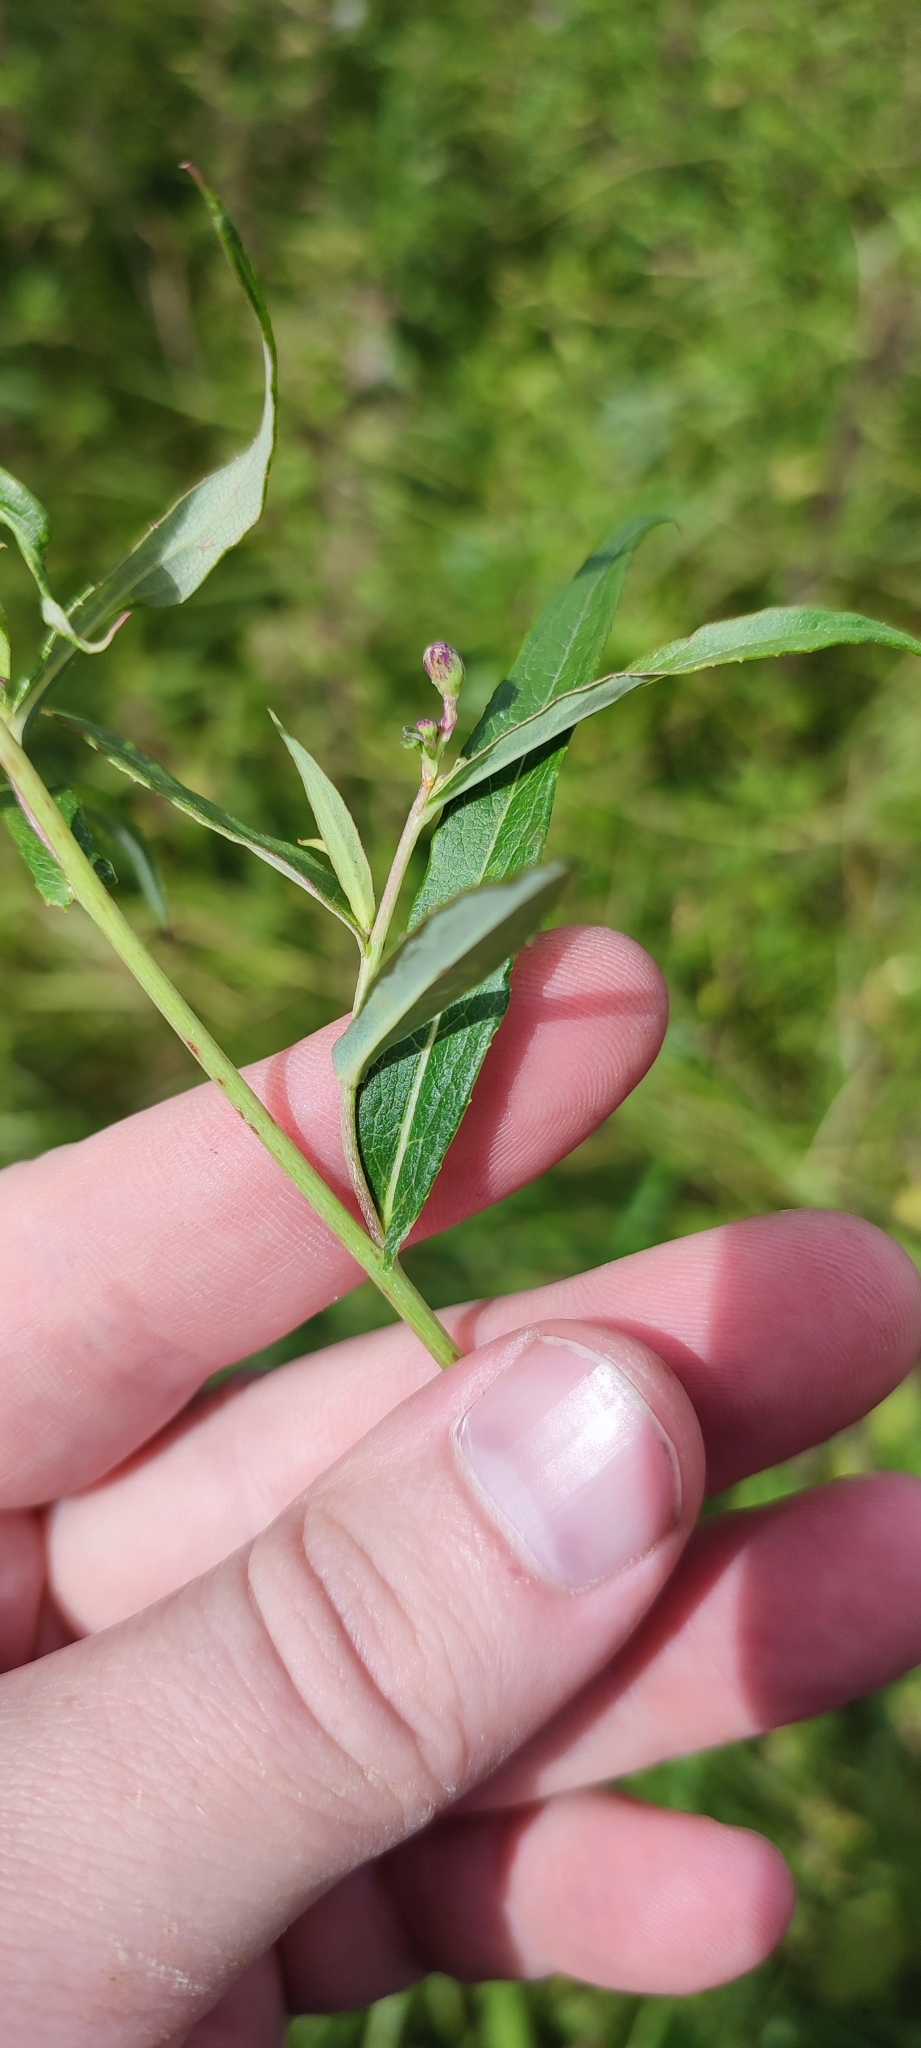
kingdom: Plantae
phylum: Tracheophyta
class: Magnoliopsida
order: Asterales
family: Asteraceae
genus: Lactuca
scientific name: Lactuca sibirica
